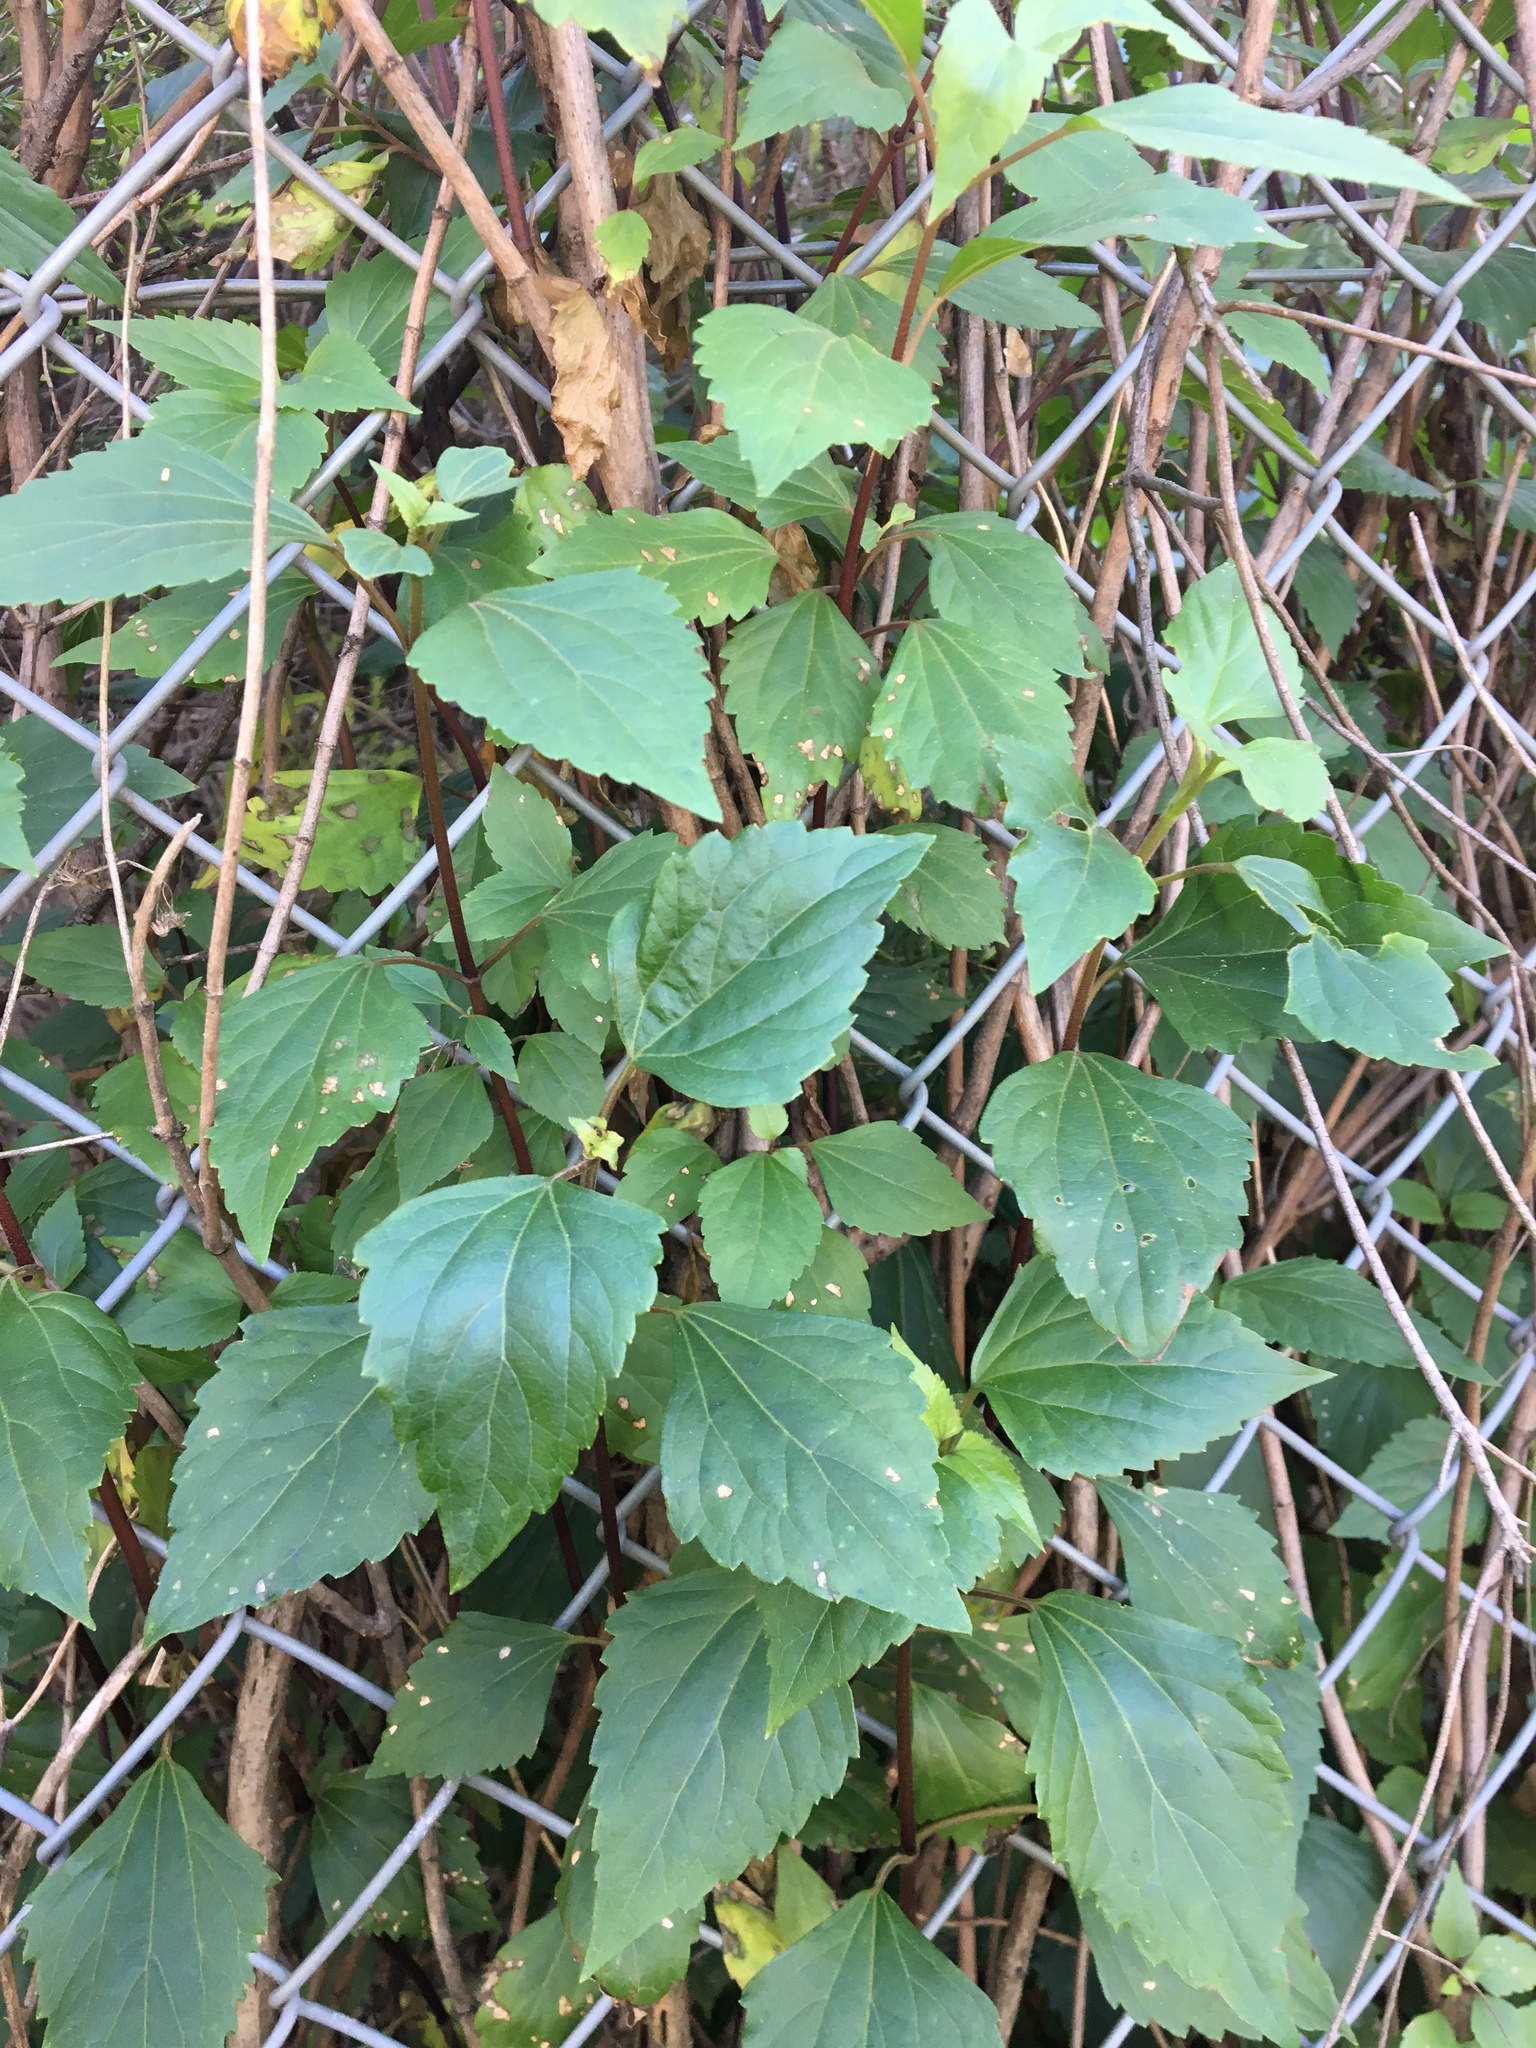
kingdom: Plantae
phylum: Tracheophyta
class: Magnoliopsida
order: Asterales
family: Asteraceae
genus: Ageratina
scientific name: Ageratina adenophora
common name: Sticky snakeroot
